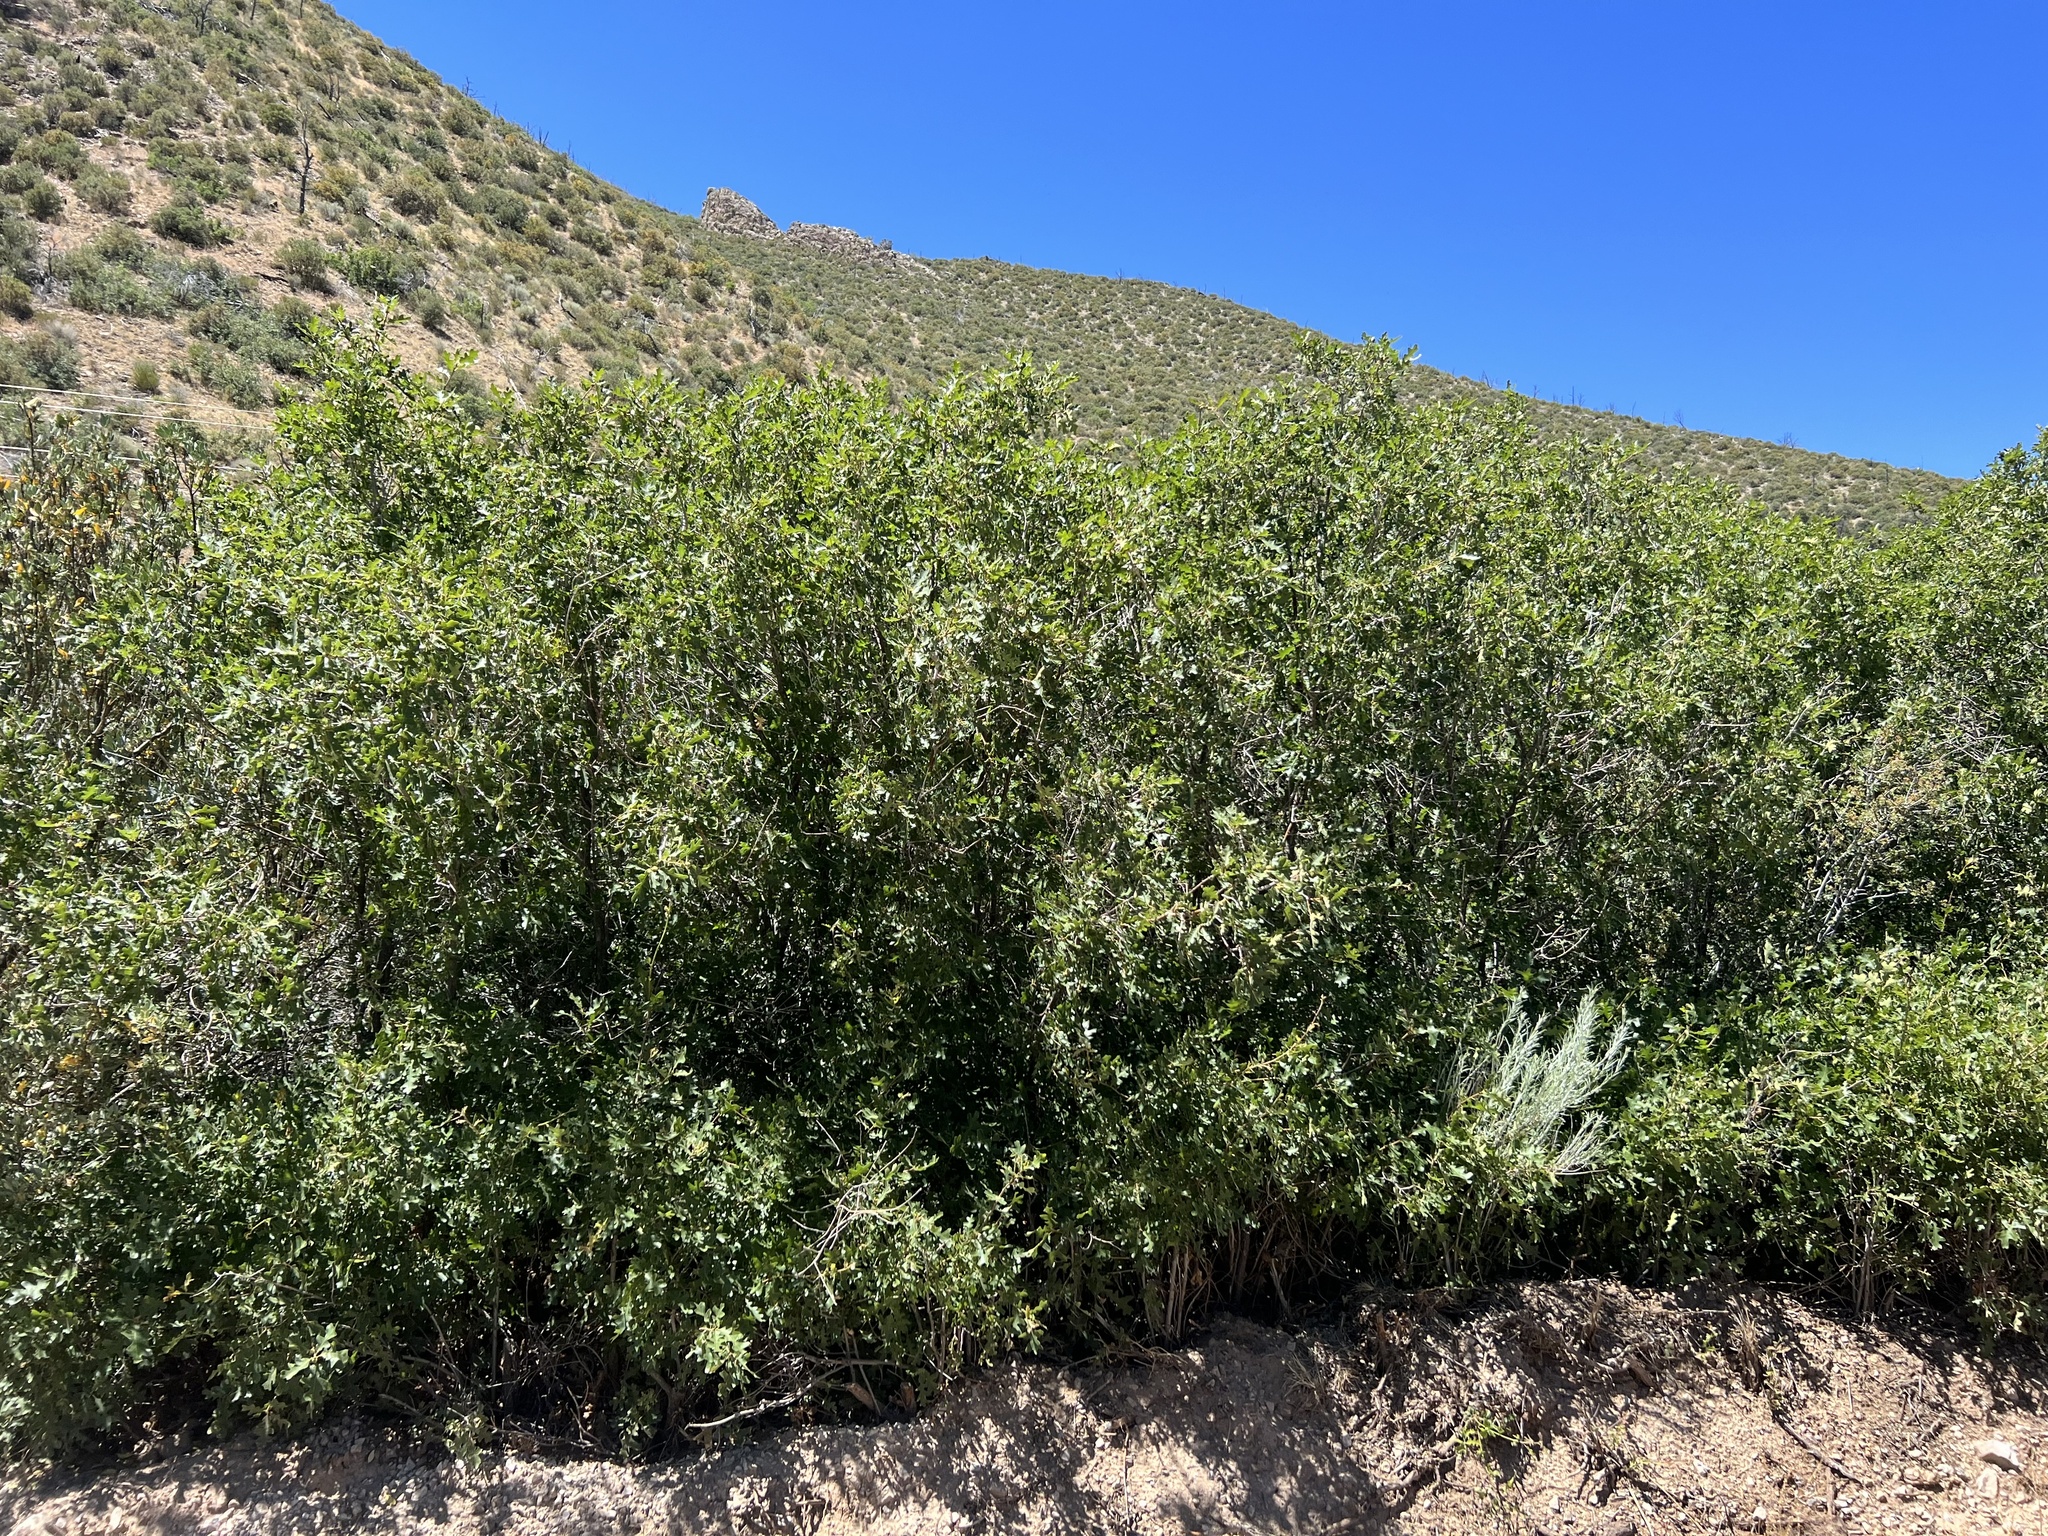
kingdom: Plantae
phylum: Tracheophyta
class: Magnoliopsida
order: Fagales
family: Fagaceae
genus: Quercus
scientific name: Quercus gambelii
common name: Gambel oak
